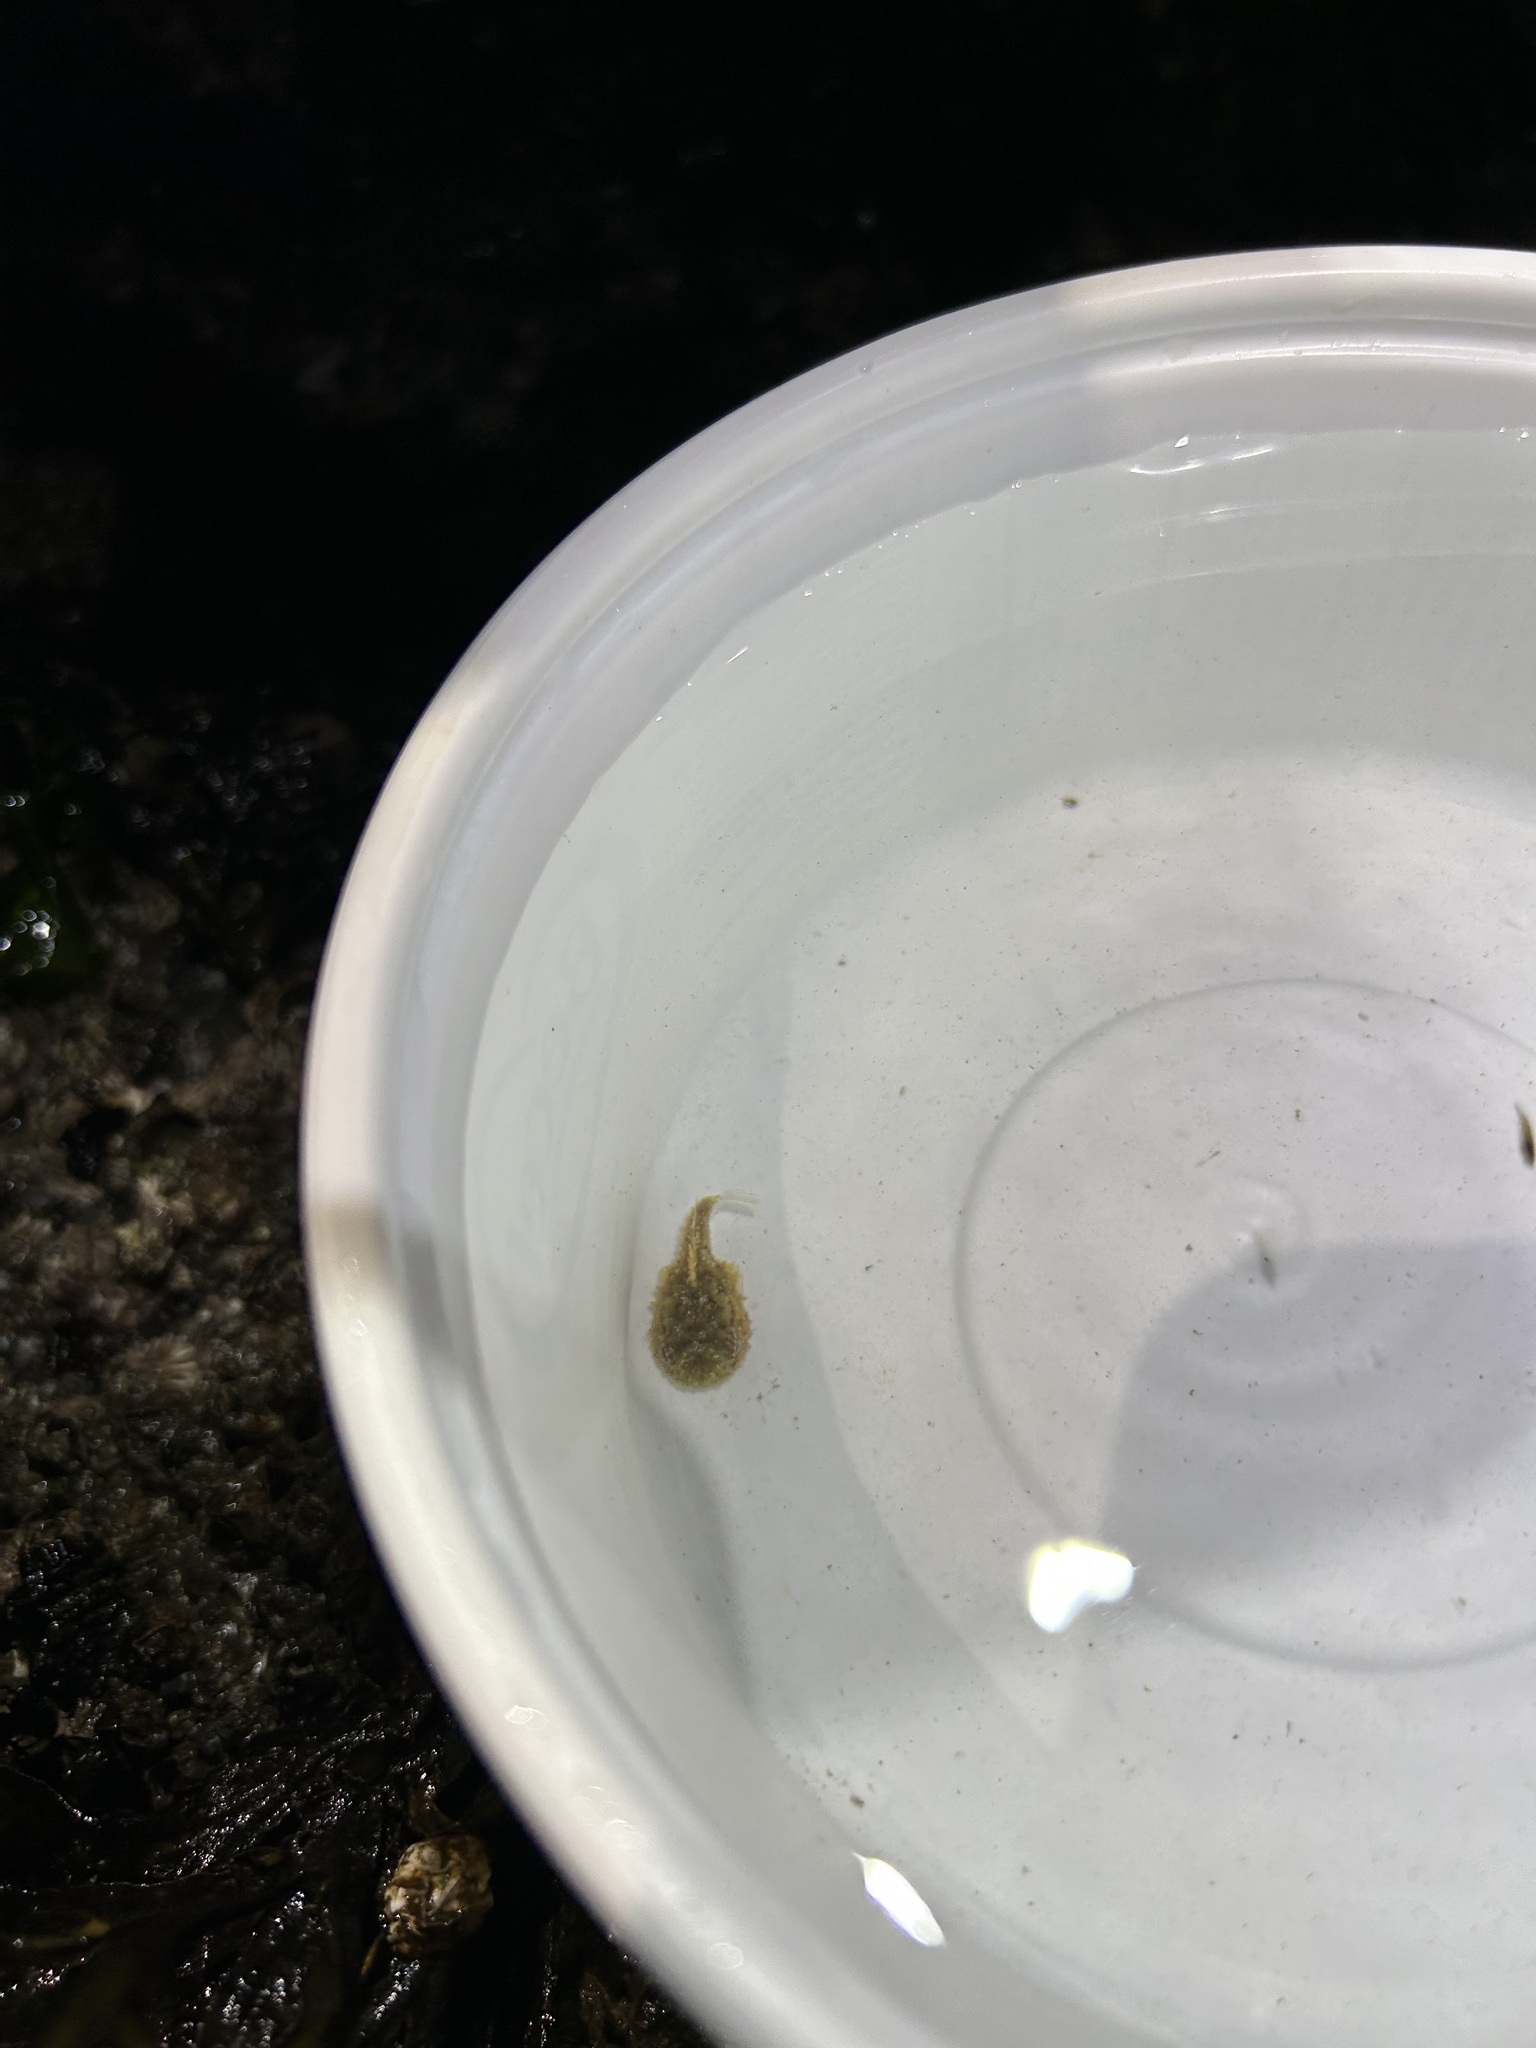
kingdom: Animalia
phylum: Chordata
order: Scorpaeniformes
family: Cyclopteridae
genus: Eumicrotremus
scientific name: Eumicrotremus orbis
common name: Pacific spiny lumpsucker
